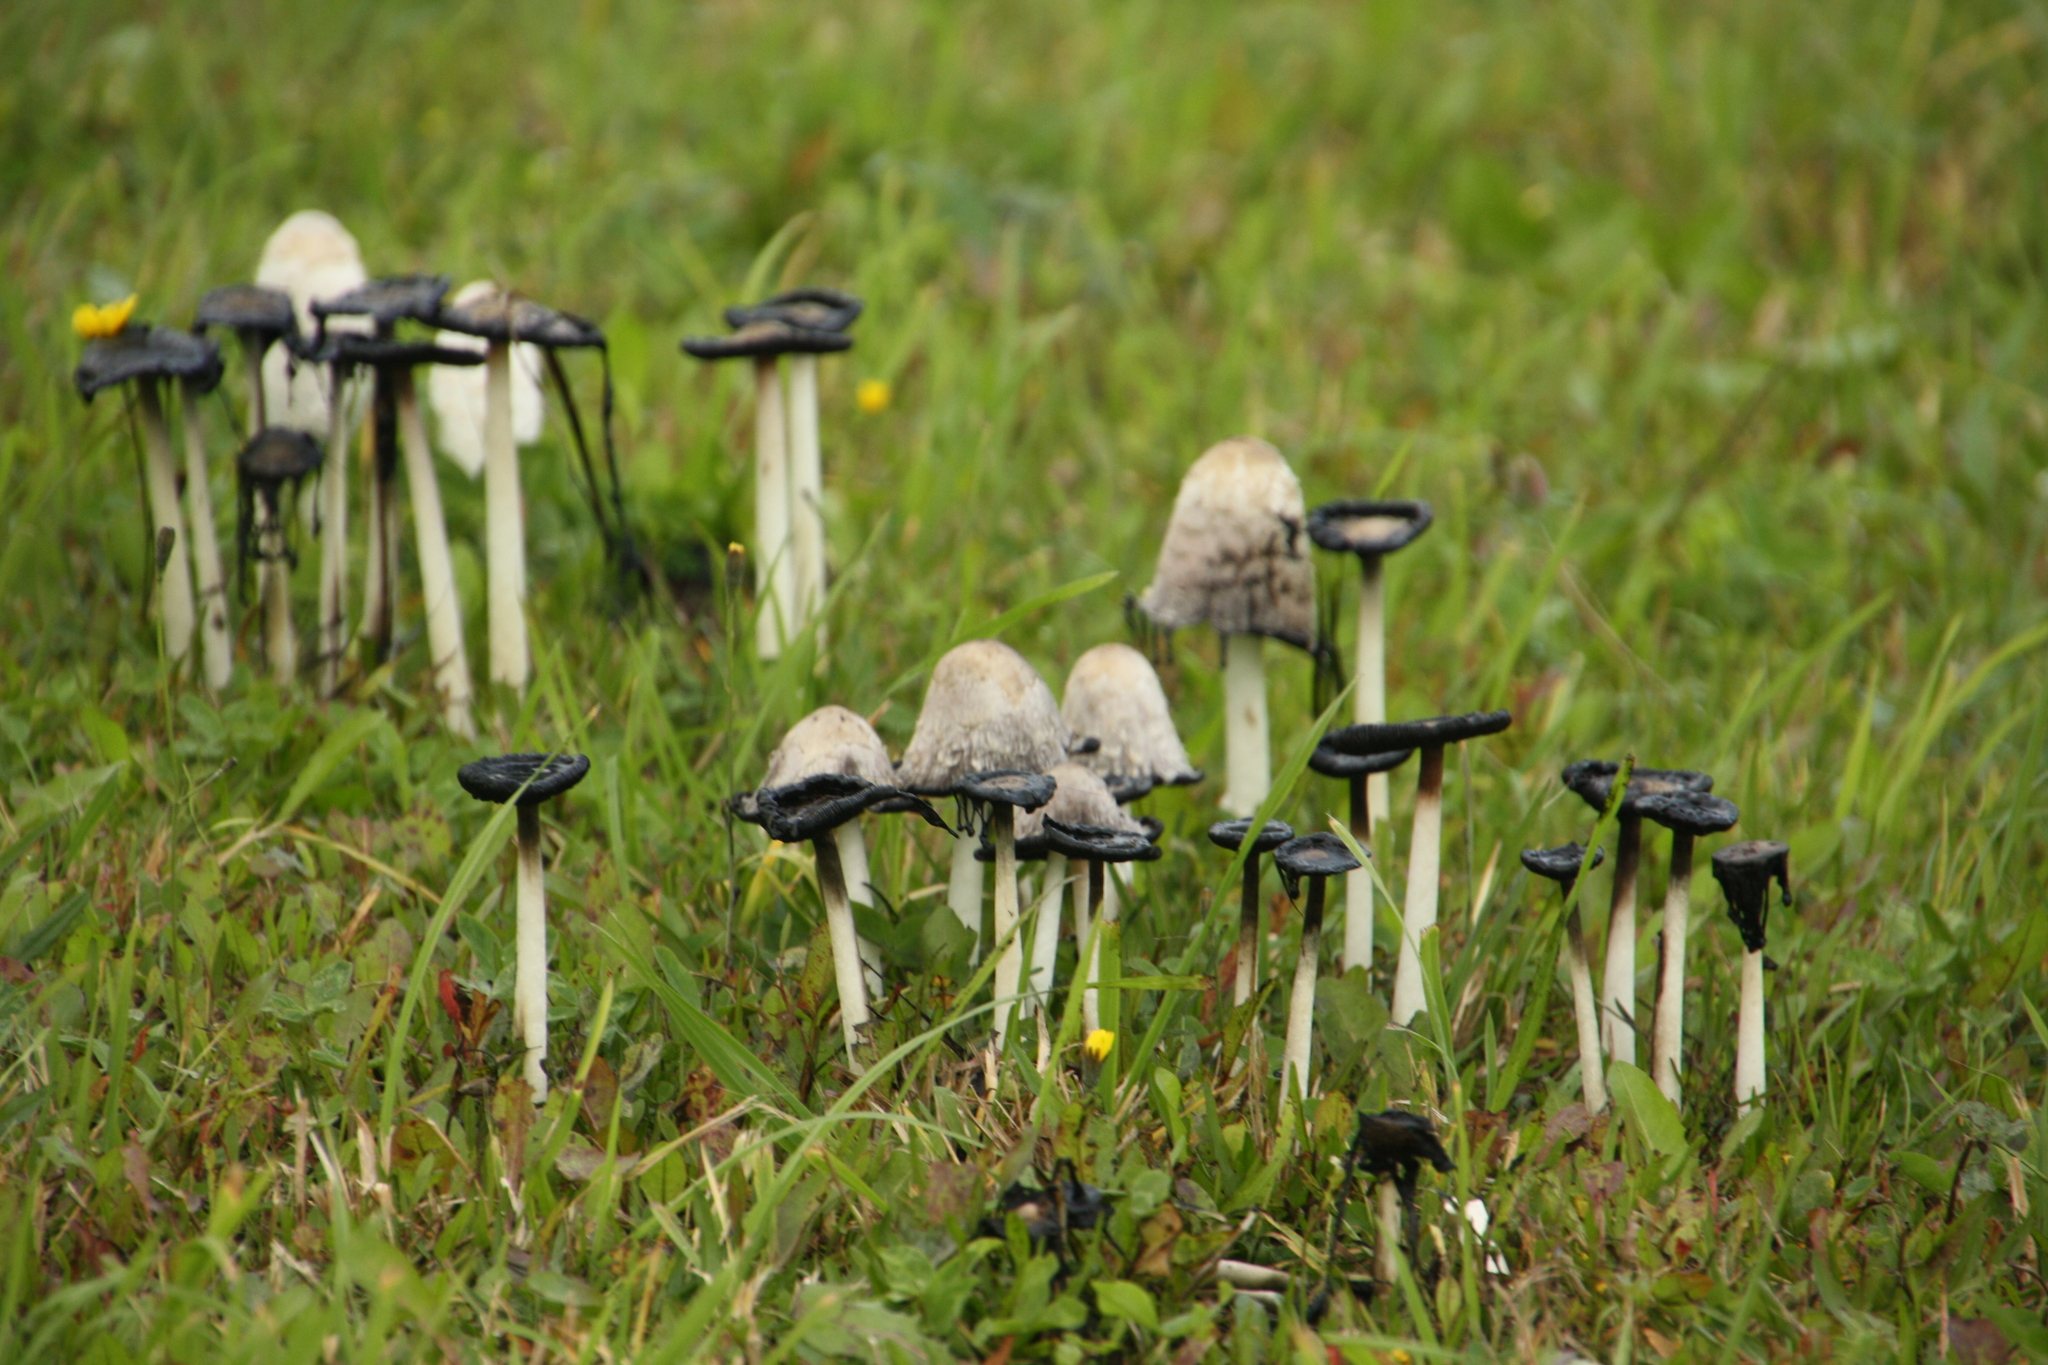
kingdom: Fungi
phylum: Basidiomycota
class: Agaricomycetes
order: Agaricales
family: Agaricaceae
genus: Coprinus
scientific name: Coprinus comatus
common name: Lawyer's wig
